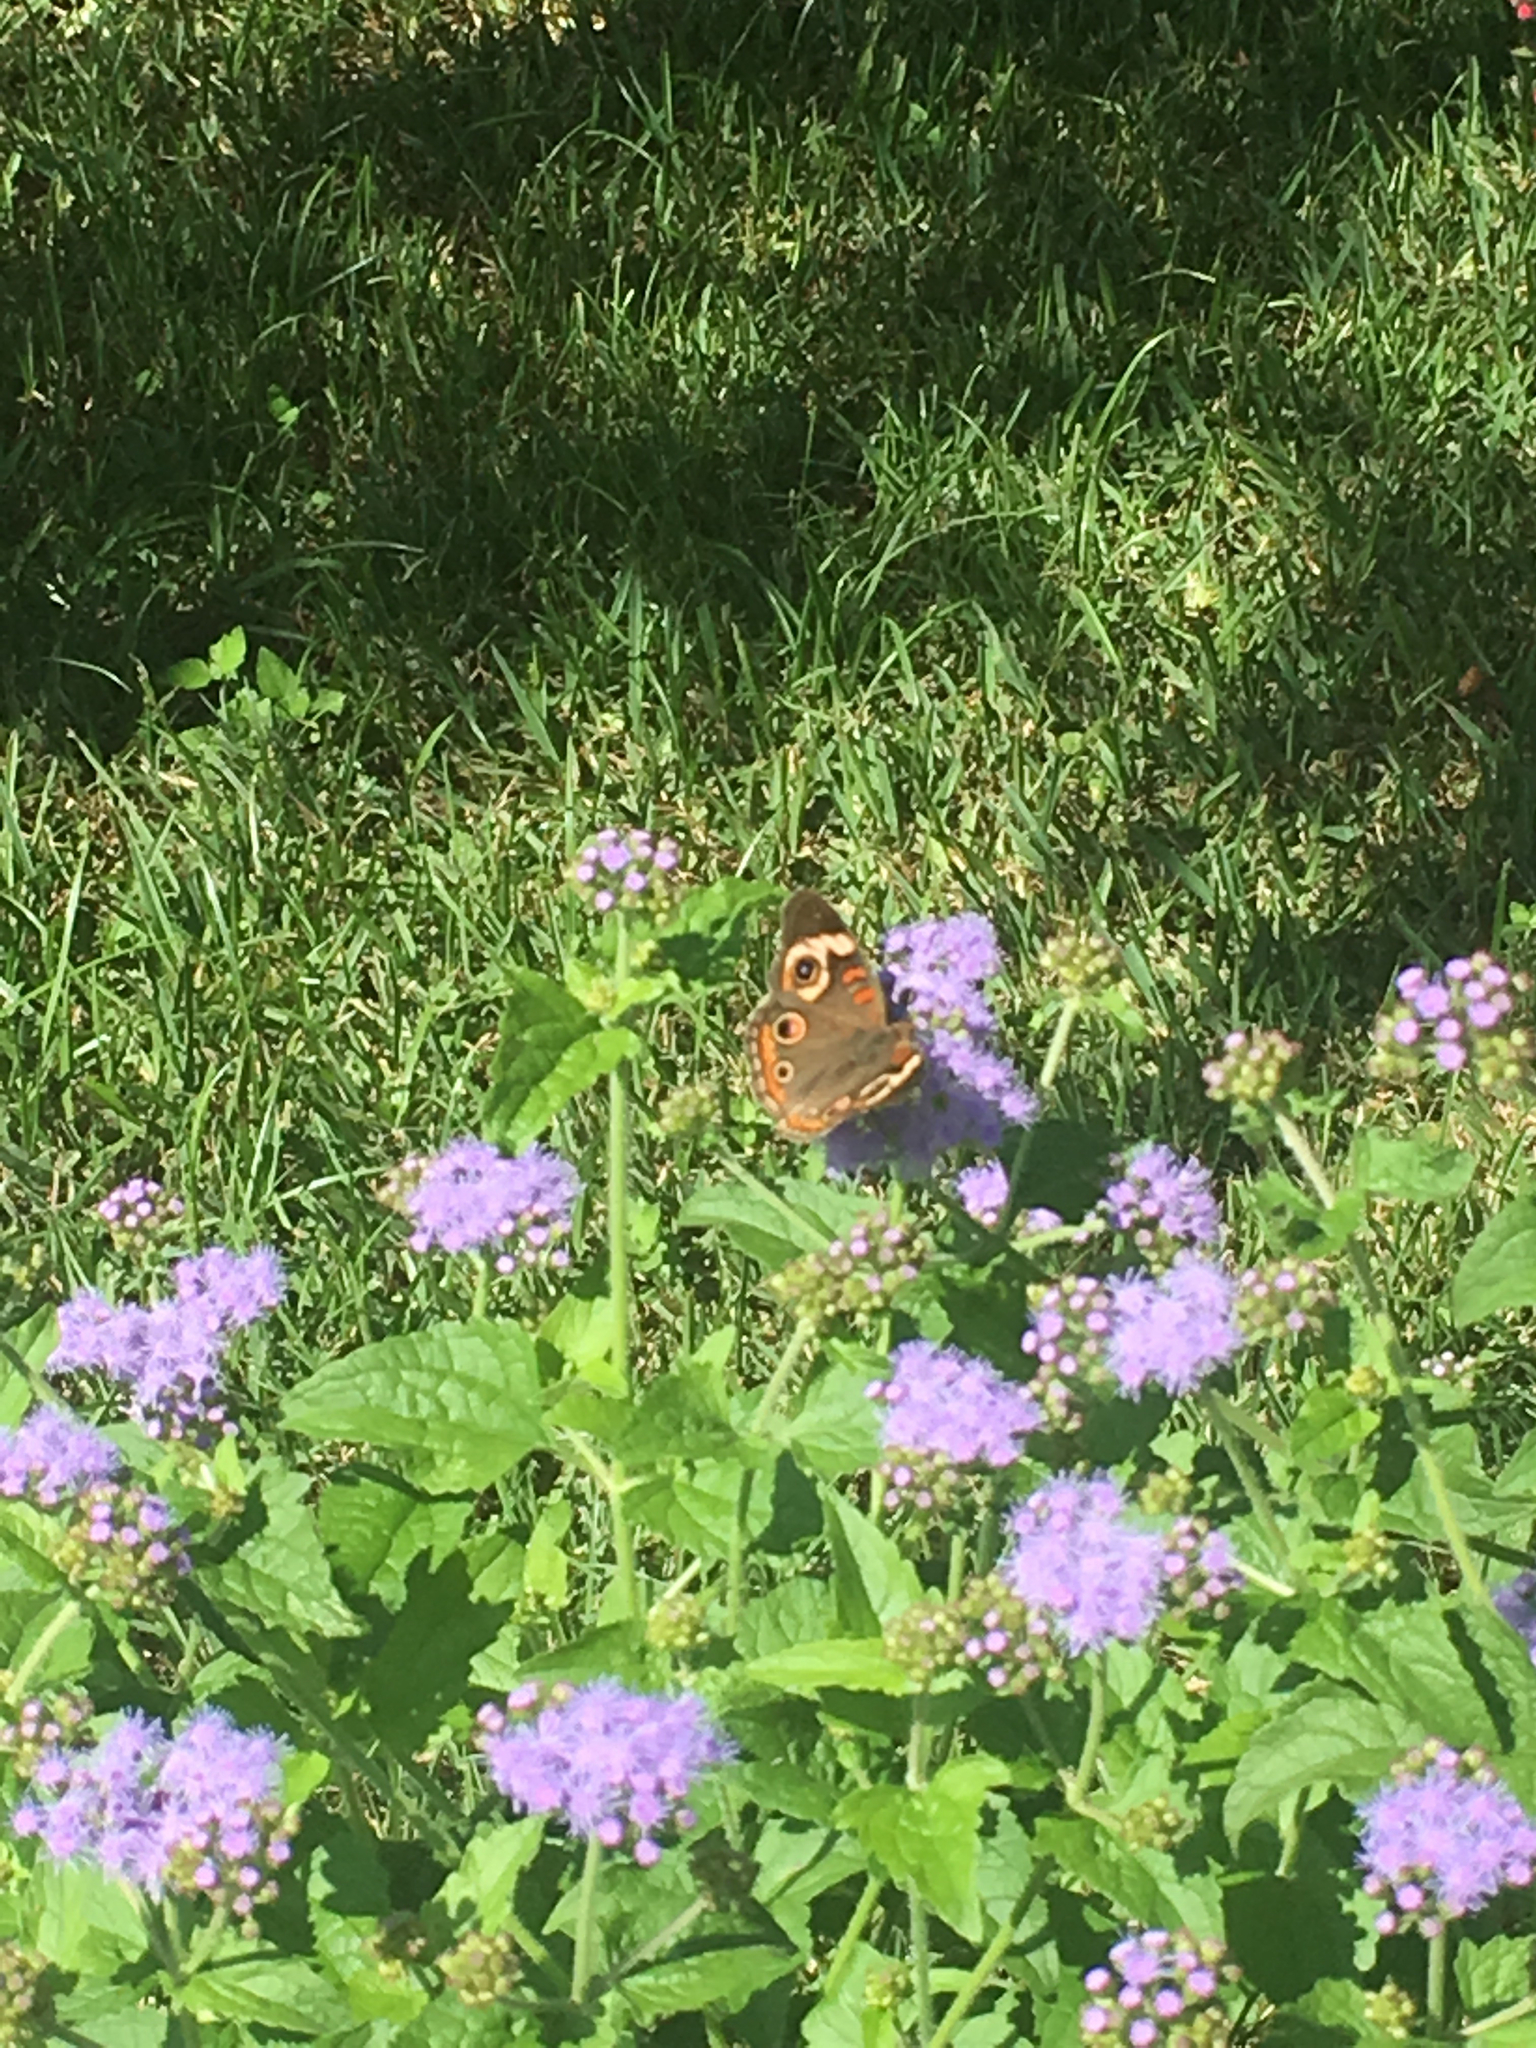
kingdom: Animalia
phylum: Arthropoda
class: Insecta
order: Lepidoptera
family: Nymphalidae
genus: Junonia
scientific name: Junonia coenia
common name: Common buckeye
